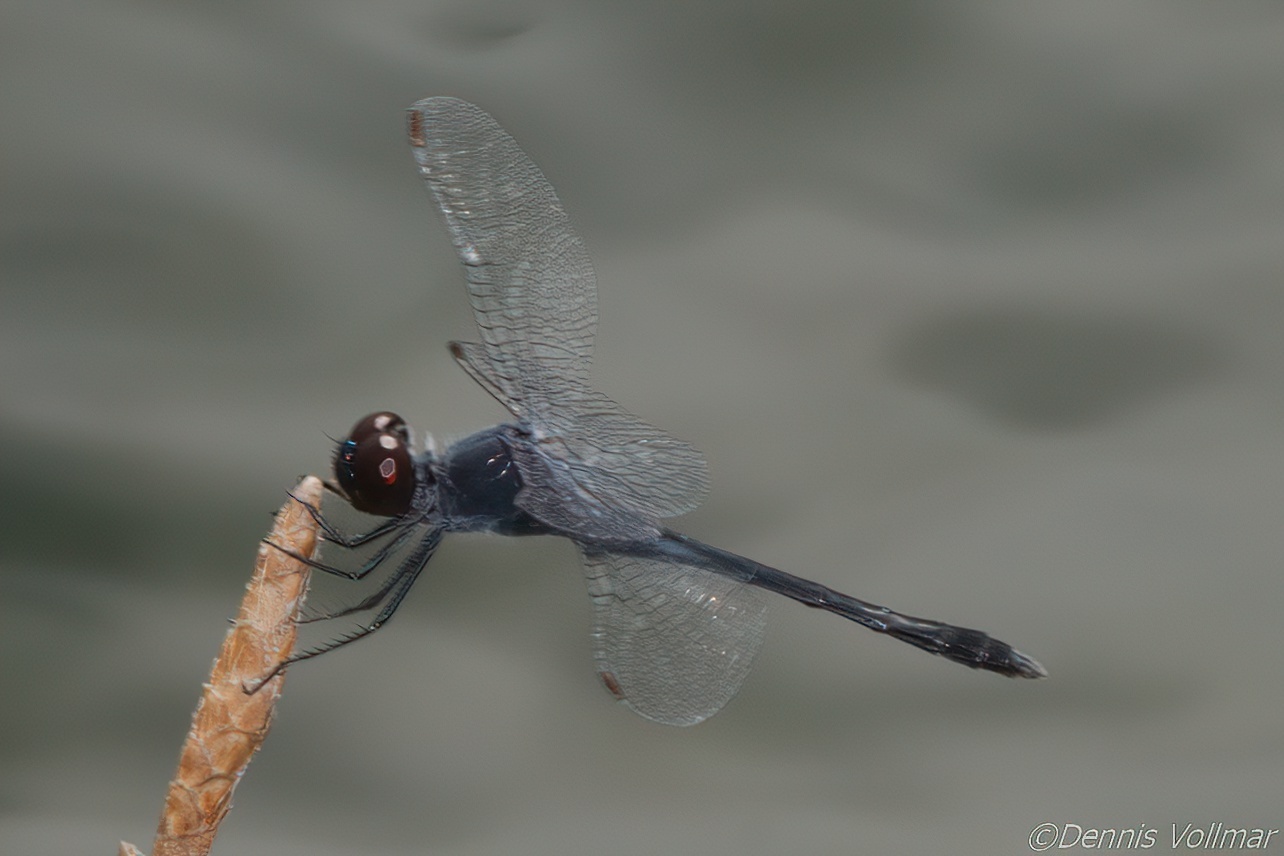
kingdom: Animalia
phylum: Arthropoda
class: Insecta
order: Odonata
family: Libellulidae
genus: Erythrodiplax
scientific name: Erythrodiplax berenice
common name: Seaside dragonlet
